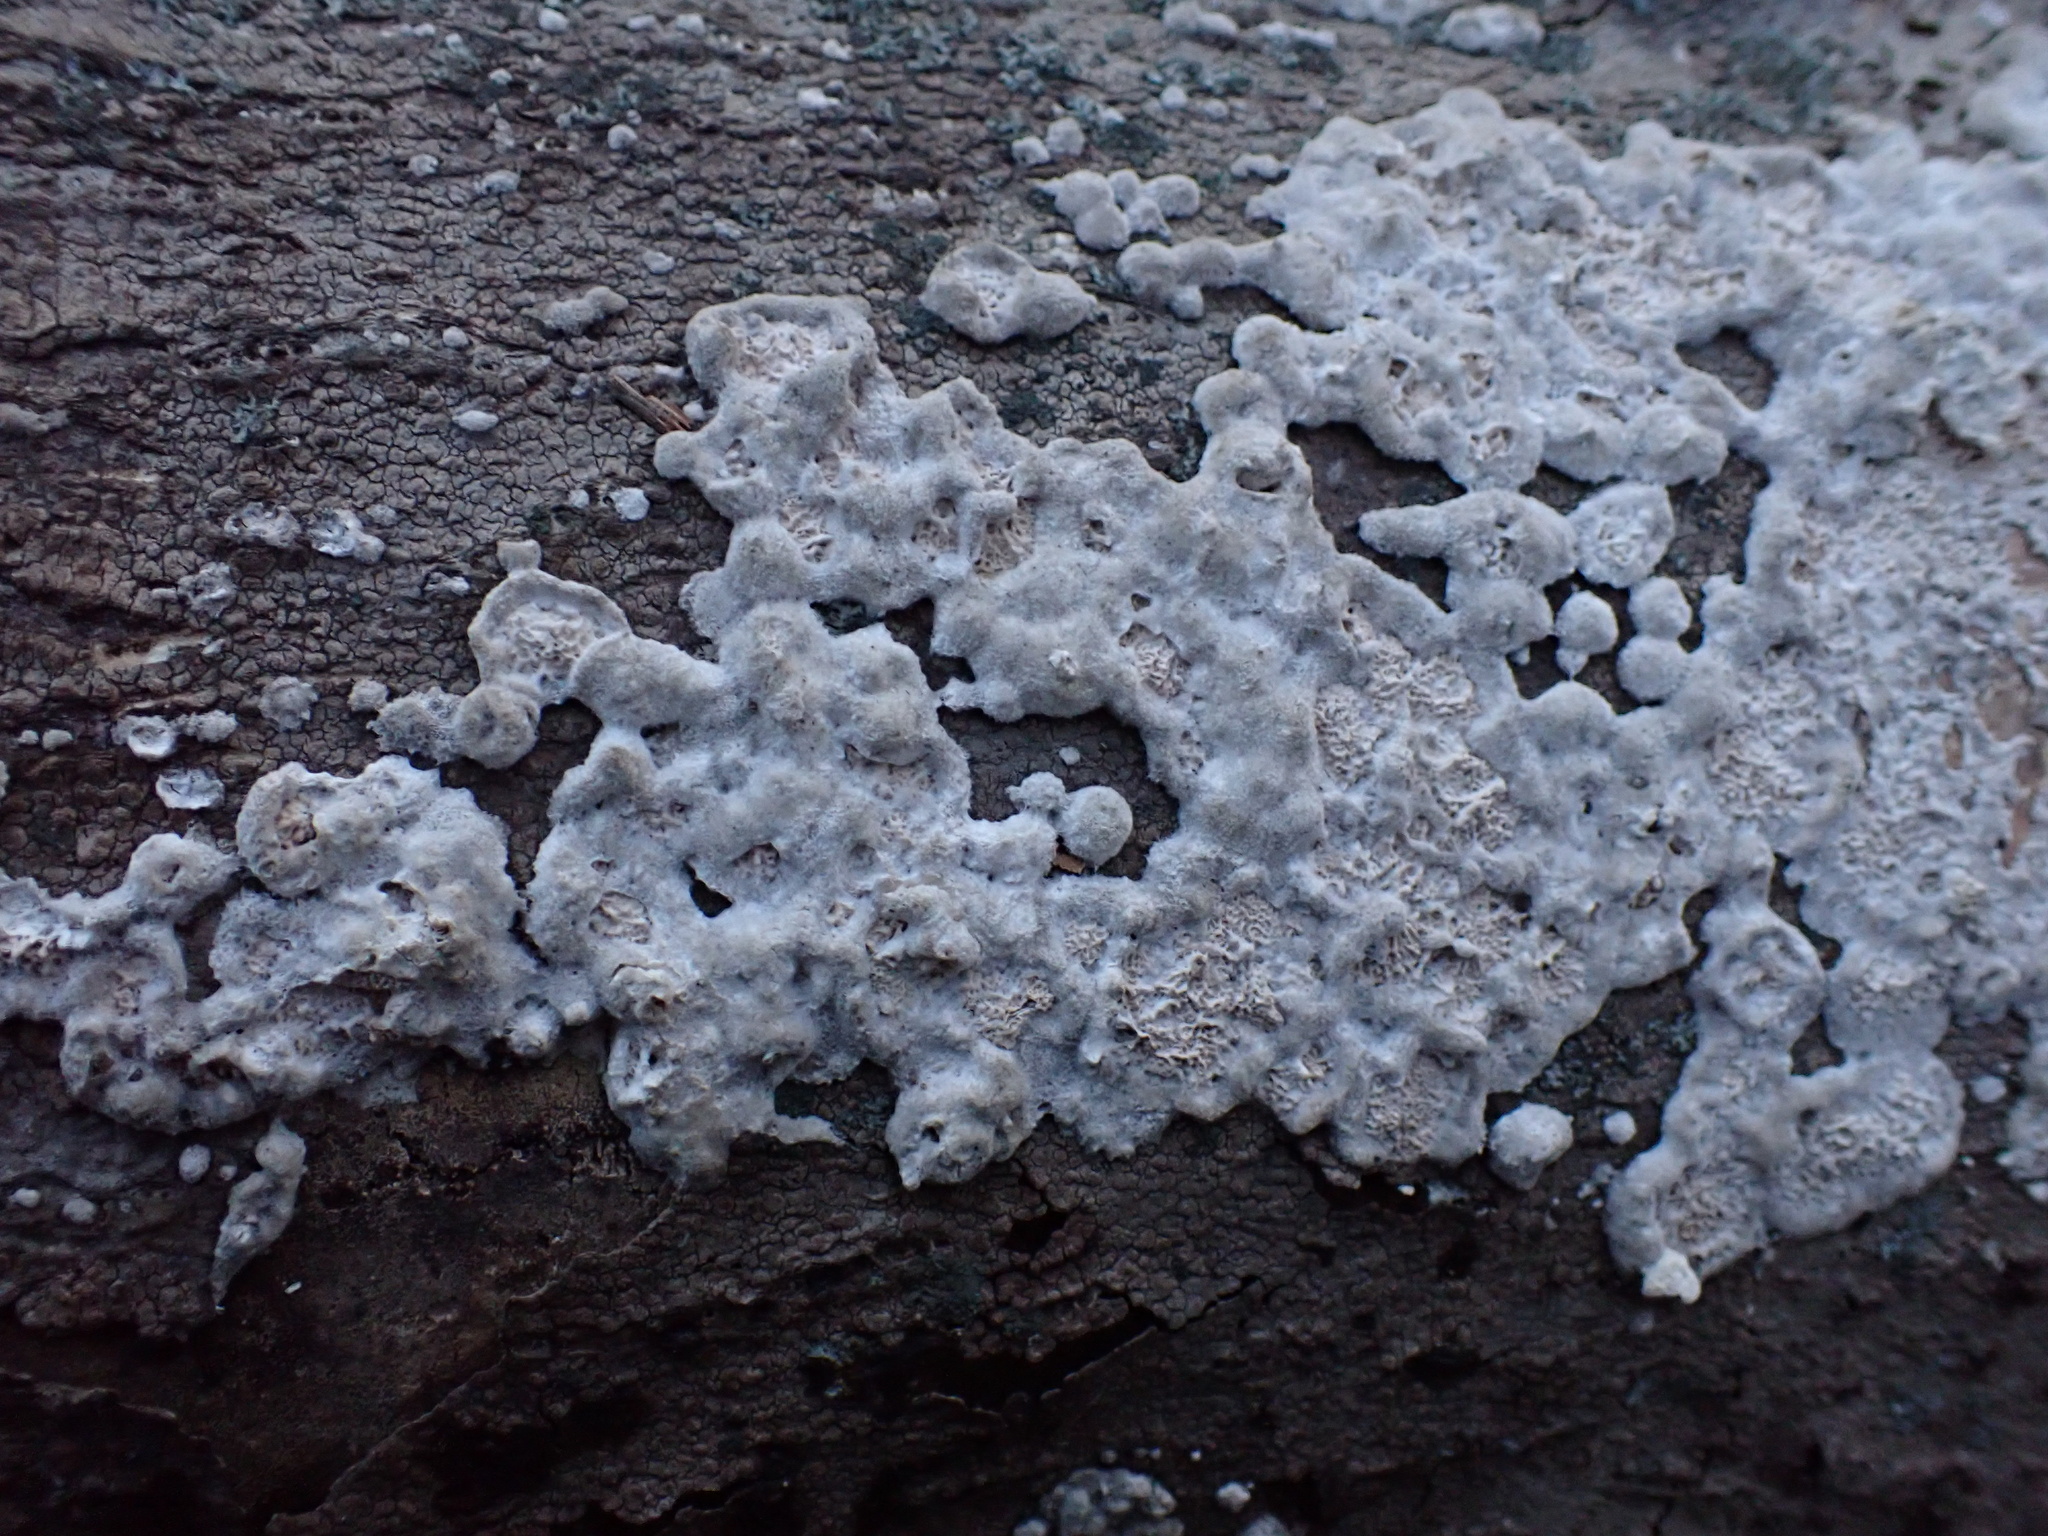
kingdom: Fungi
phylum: Basidiomycota
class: Agaricomycetes
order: Polyporales
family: Irpicaceae
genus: Irpex
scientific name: Irpex lacteus
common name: Milk-white toothed polypore
